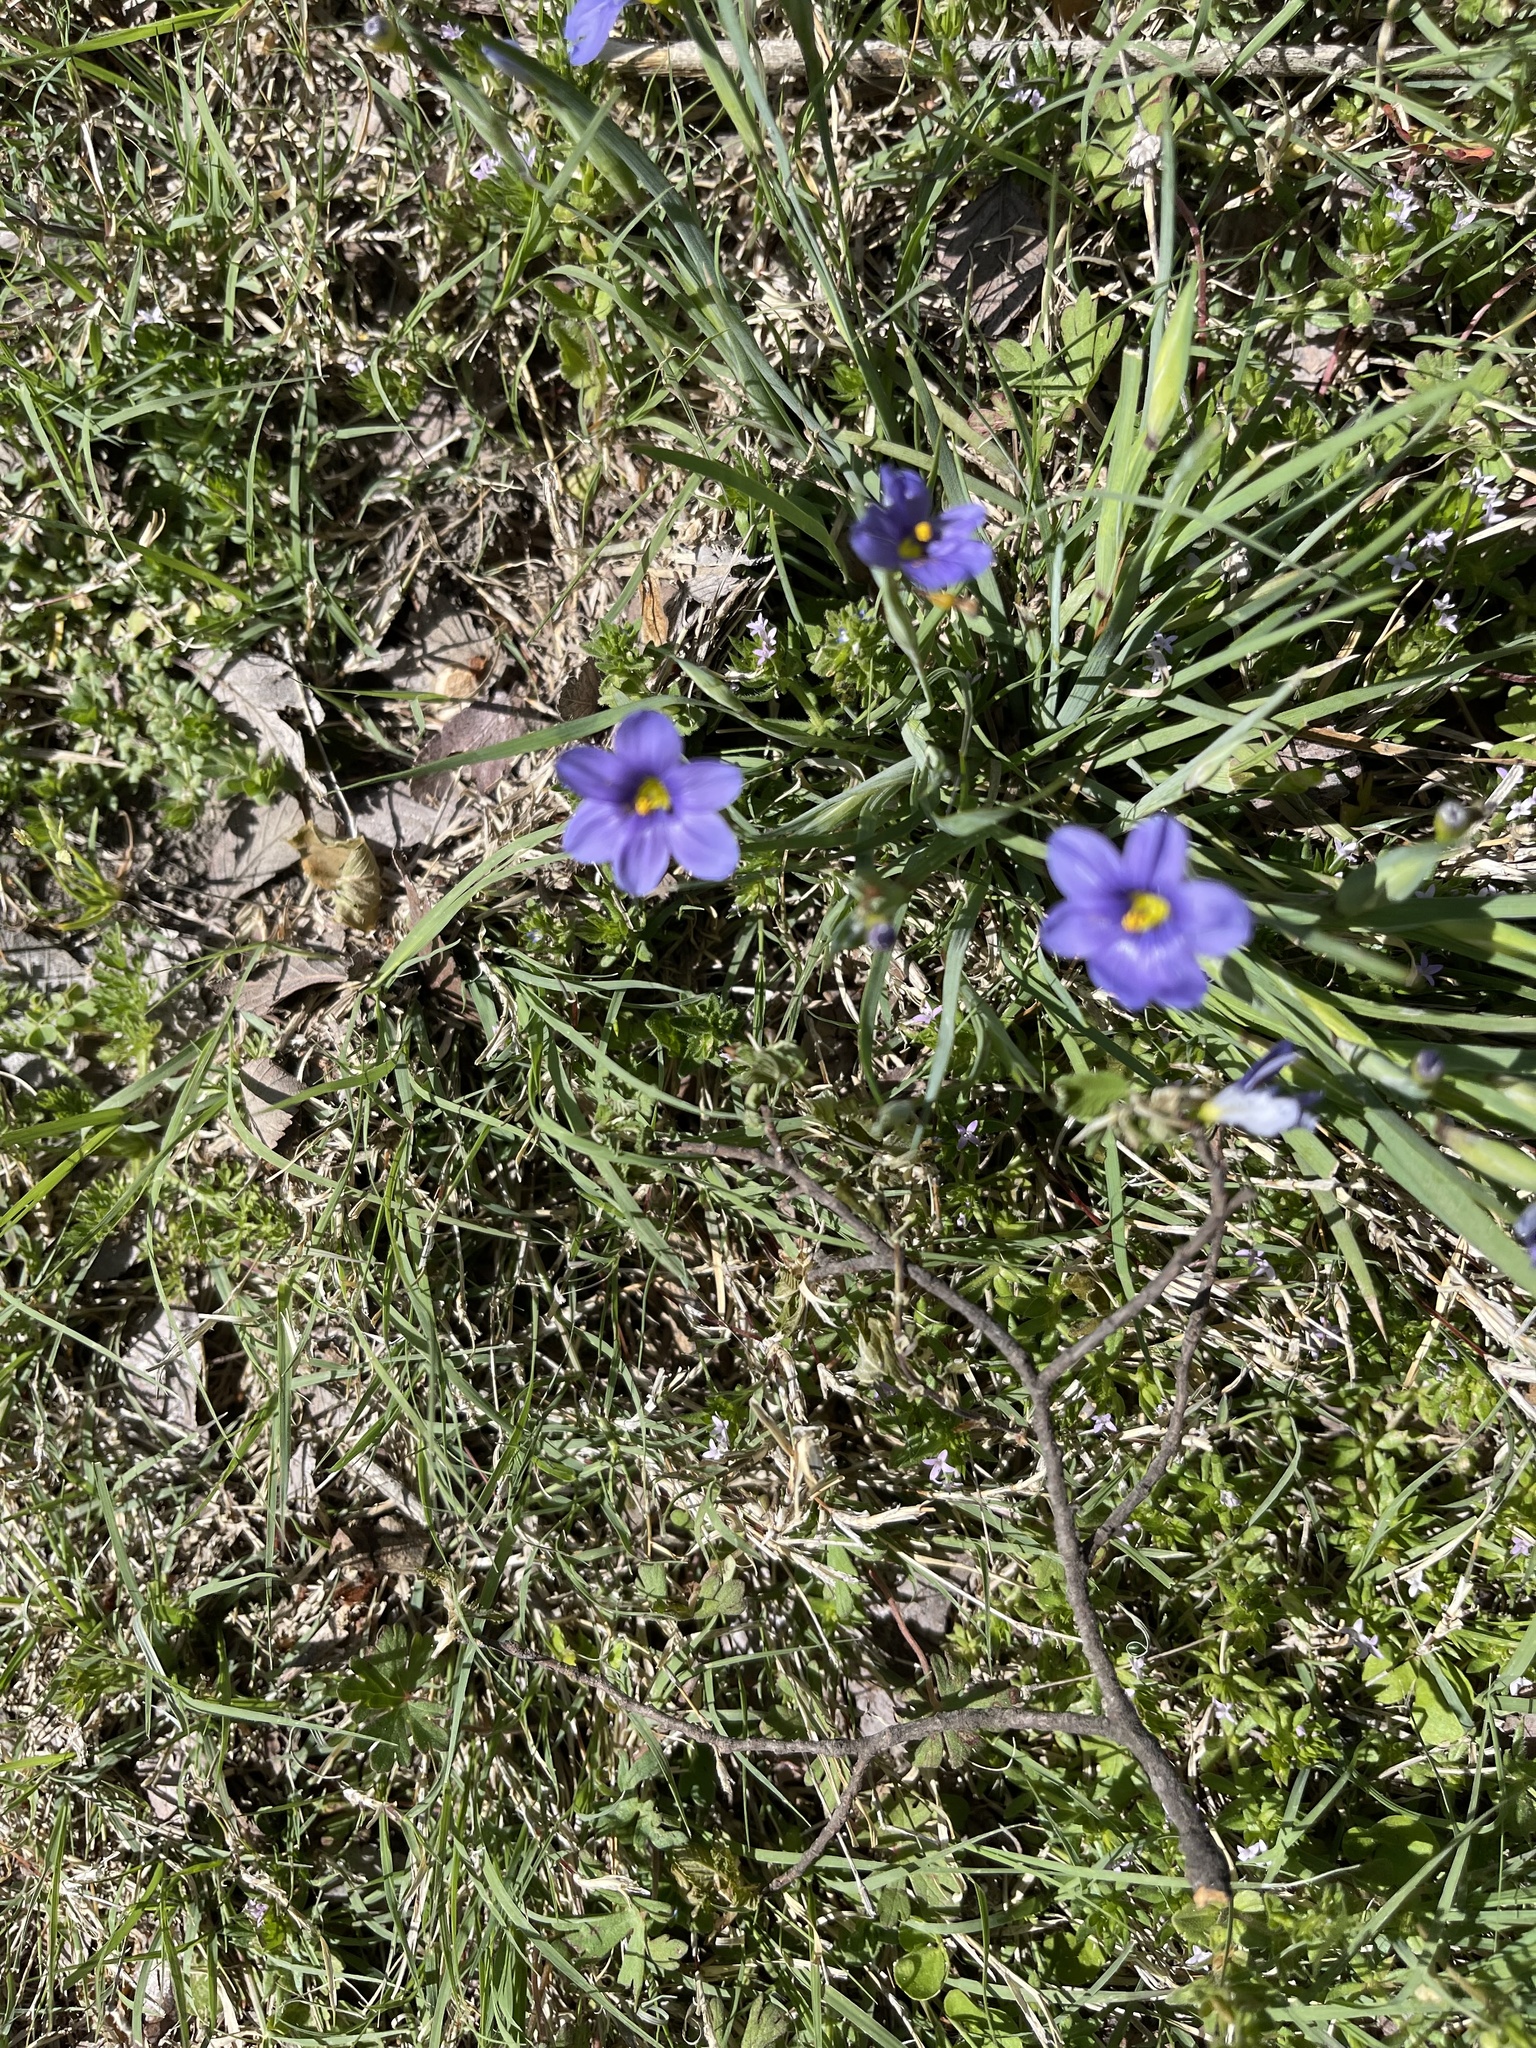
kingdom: Plantae
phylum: Tracheophyta
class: Liliopsida
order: Asparagales
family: Iridaceae
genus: Sisyrinchium
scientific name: Sisyrinchium pruinosum
